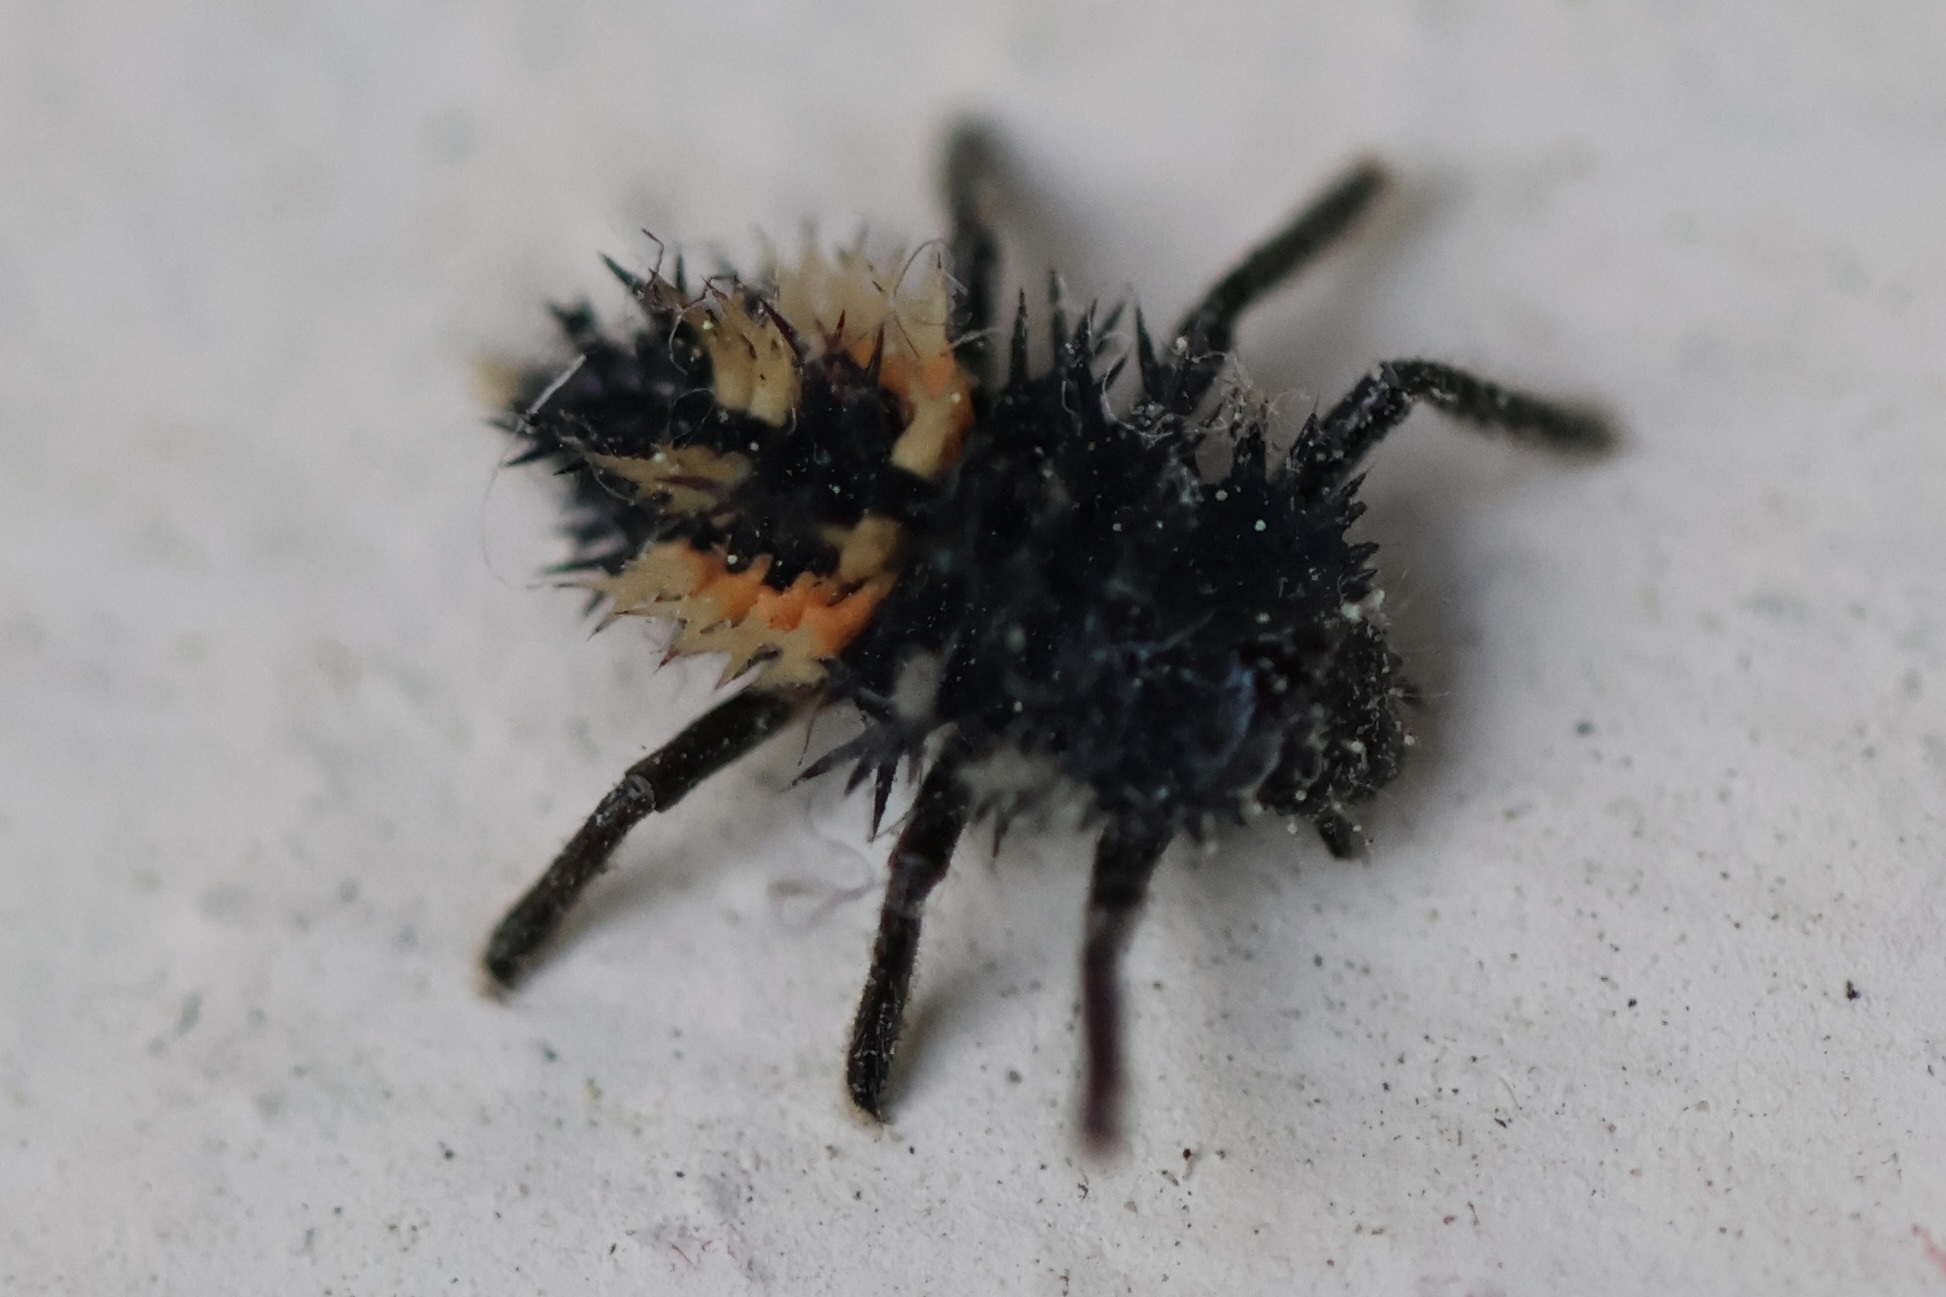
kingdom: Animalia
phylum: Arthropoda
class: Insecta
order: Coleoptera
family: Coccinellidae
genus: Harmonia
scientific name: Harmonia axyridis
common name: Harlequin ladybird
